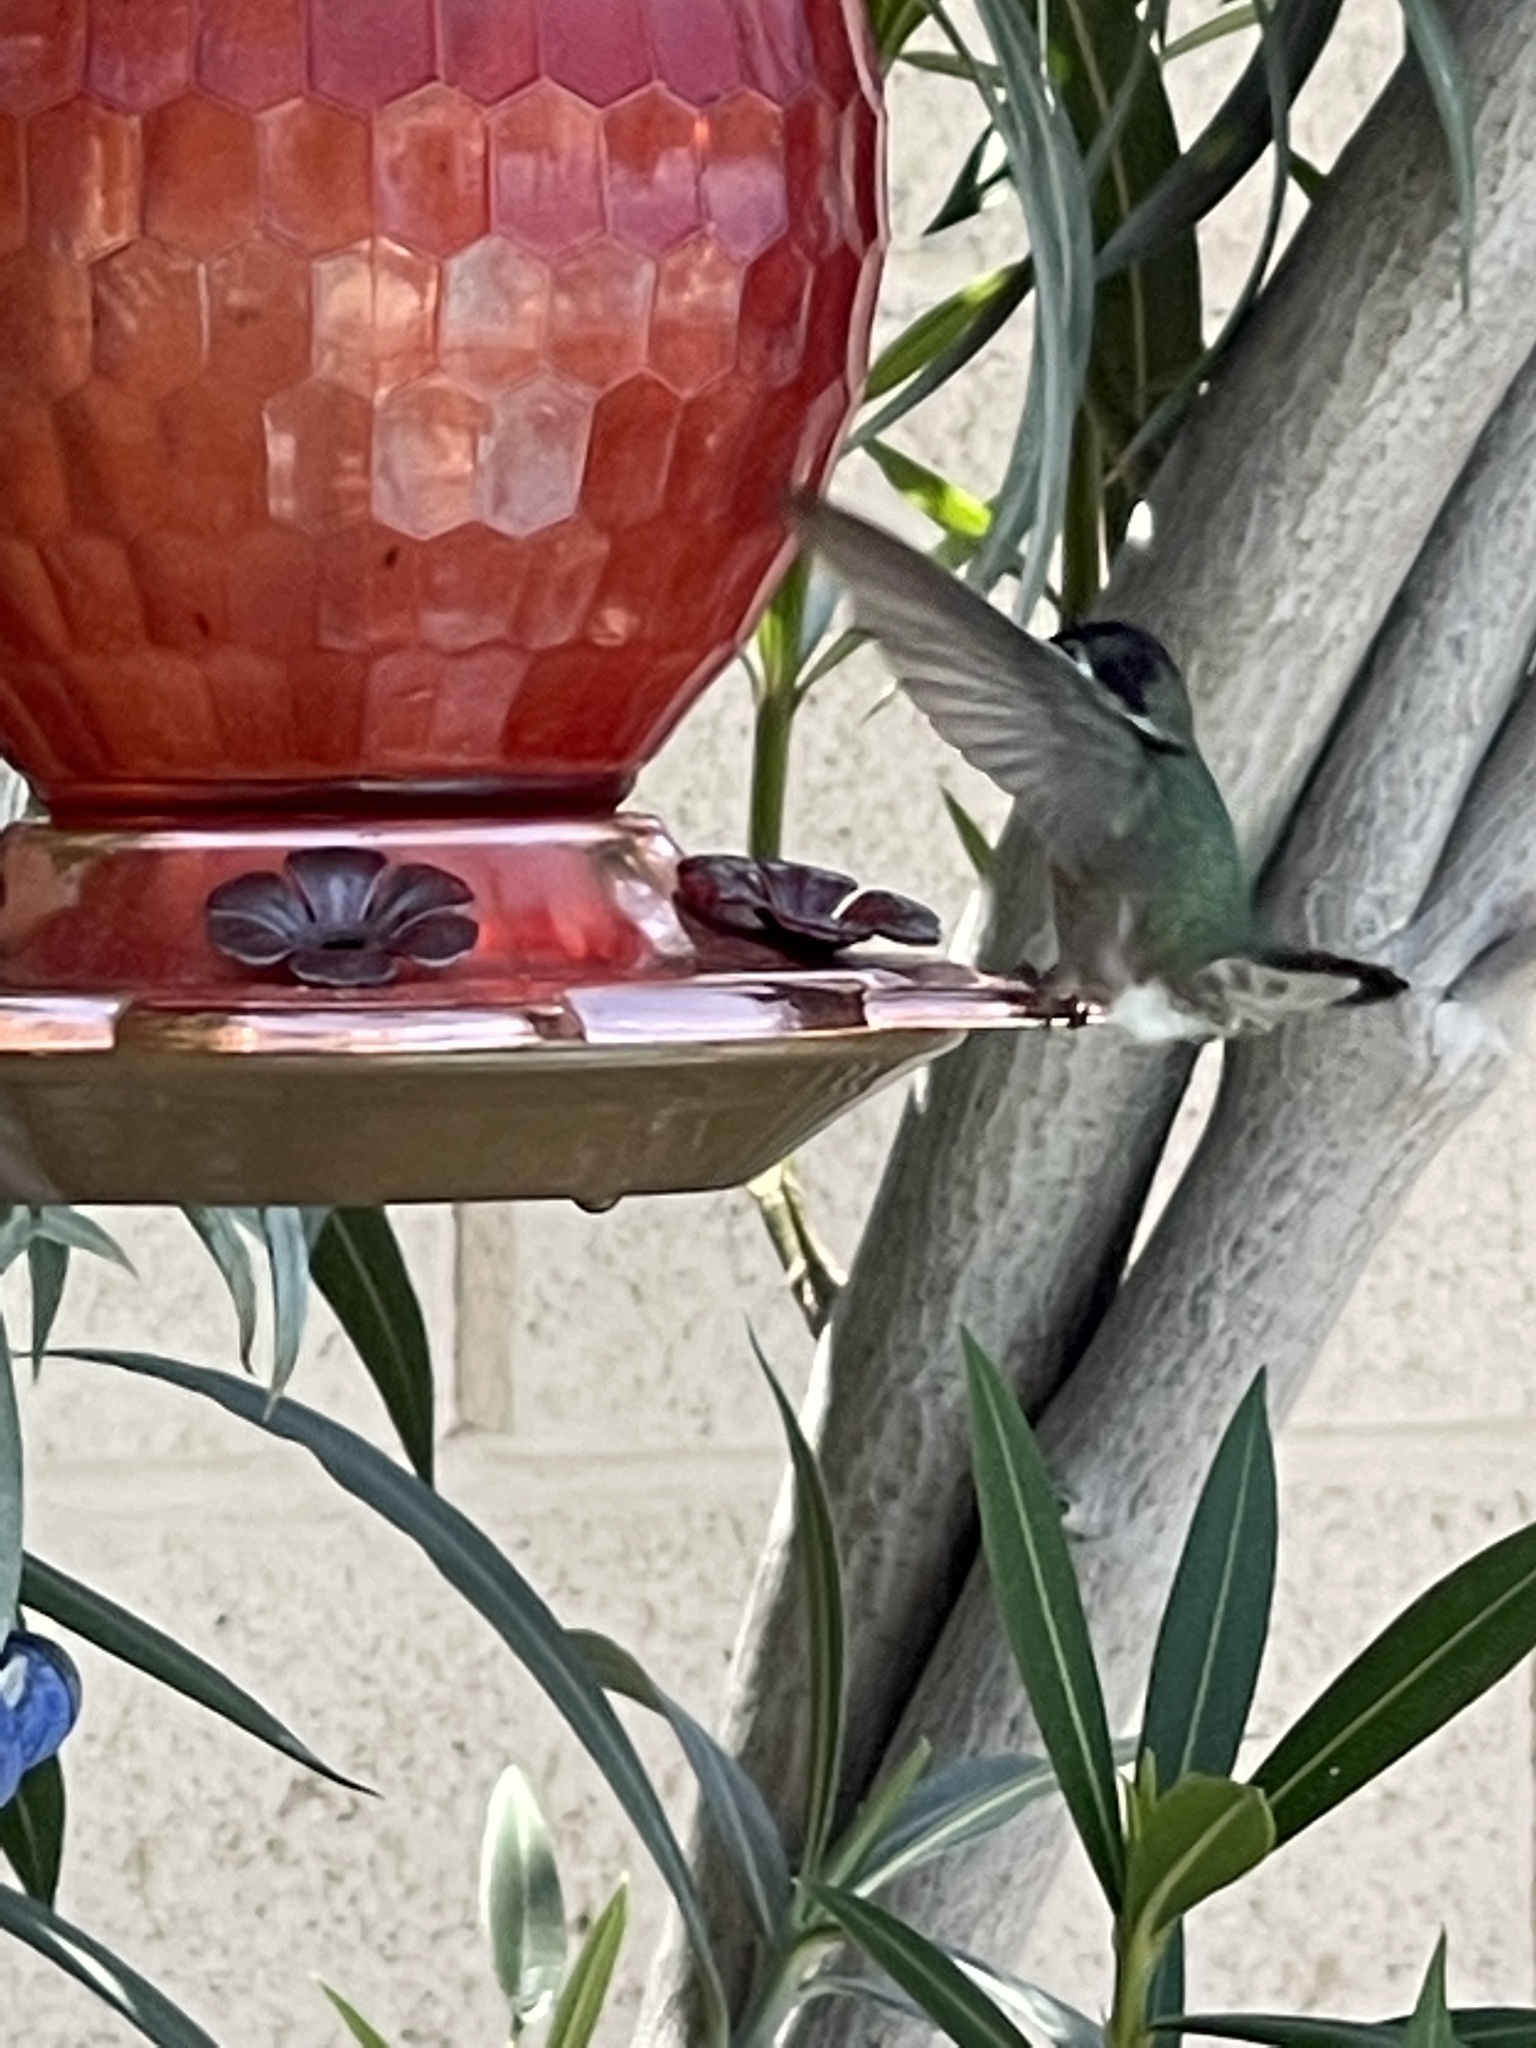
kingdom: Animalia
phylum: Chordata
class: Aves
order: Apodiformes
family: Trochilidae
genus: Calypte
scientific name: Calypte costae
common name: Costa's hummingbird
